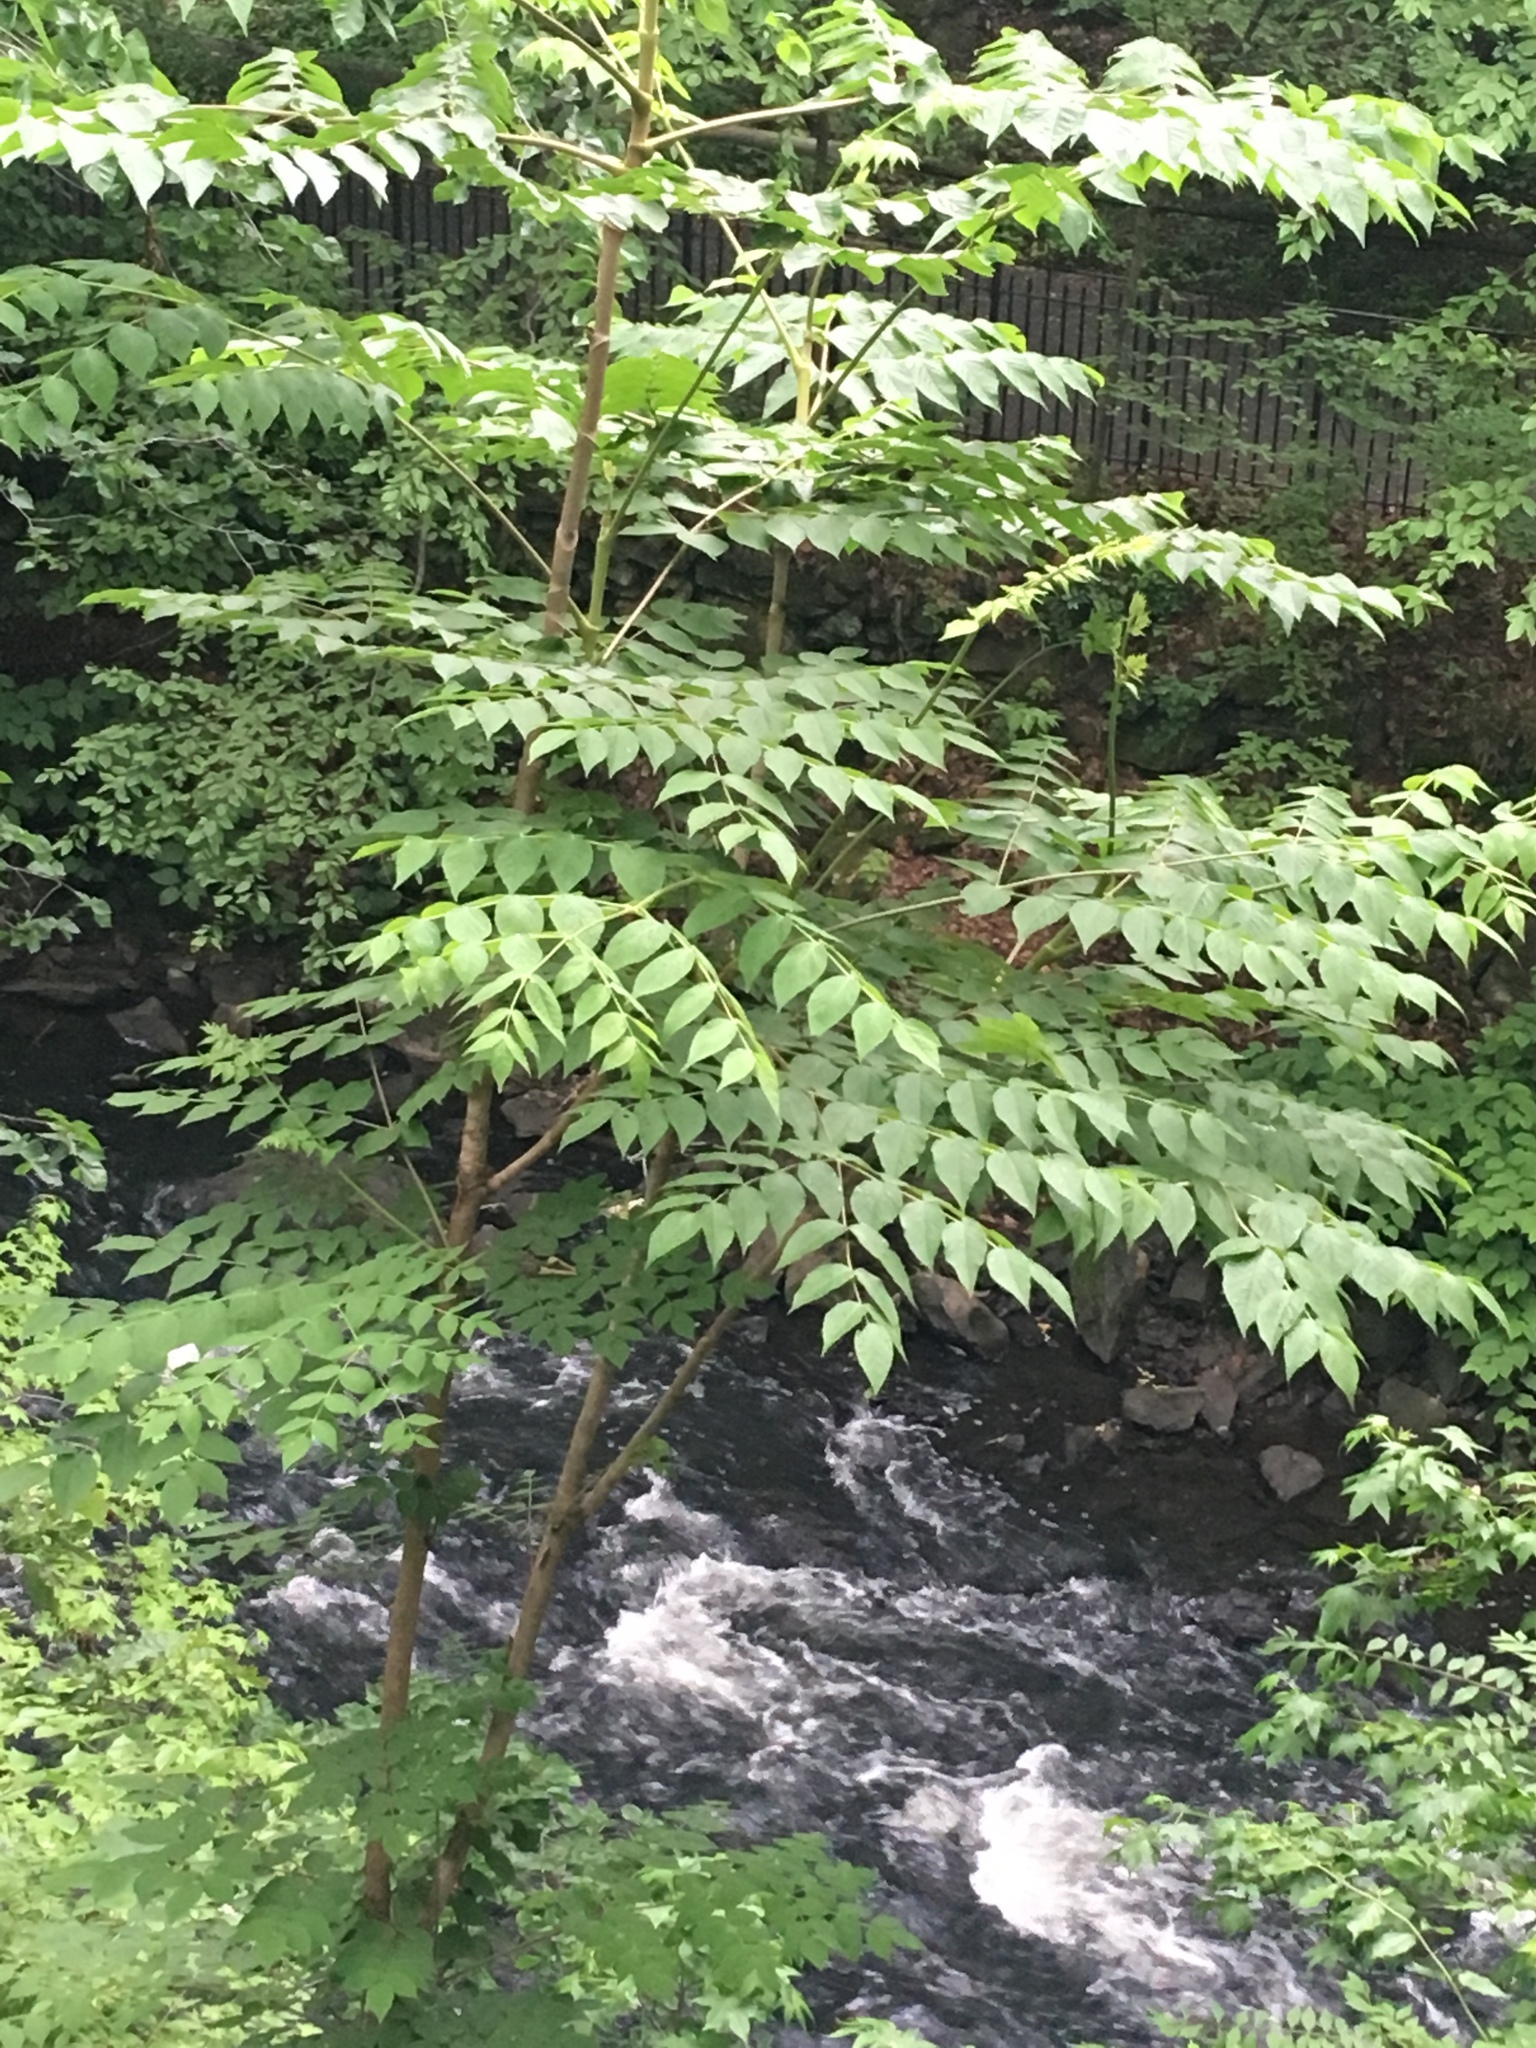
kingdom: Plantae
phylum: Tracheophyta
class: Magnoliopsida
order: Apiales
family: Araliaceae
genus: Aralia
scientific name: Aralia elata
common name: Japanese angelica-tree
